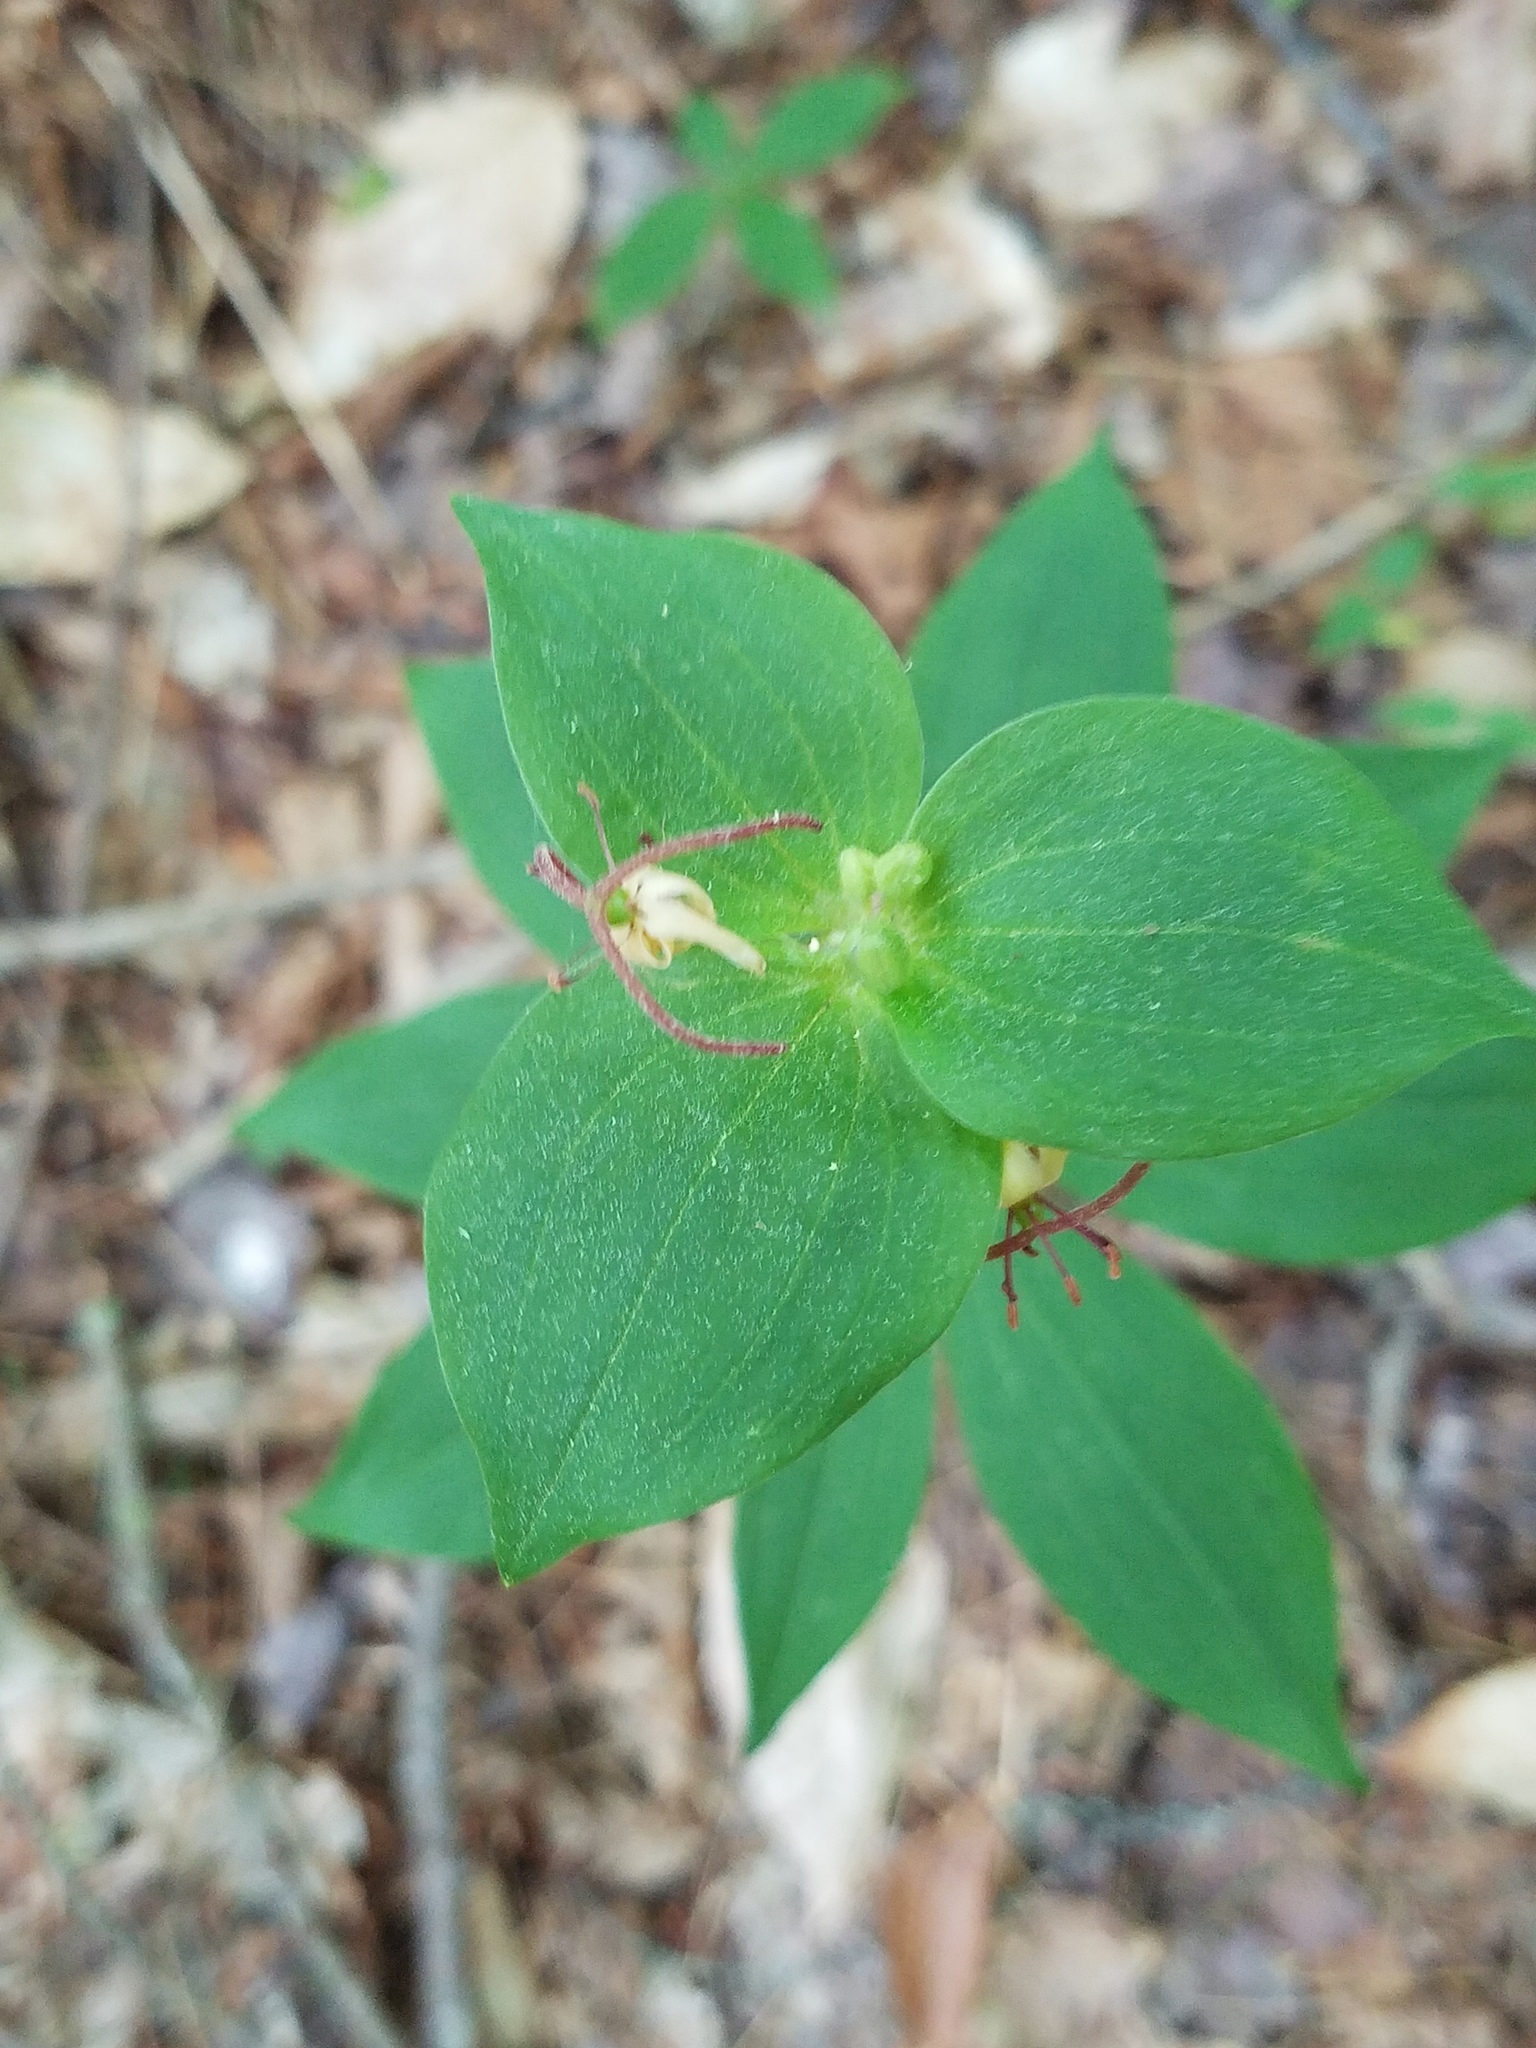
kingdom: Plantae
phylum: Tracheophyta
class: Liliopsida
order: Liliales
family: Liliaceae
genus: Medeola
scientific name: Medeola virginiana
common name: Indian cucumber-root
